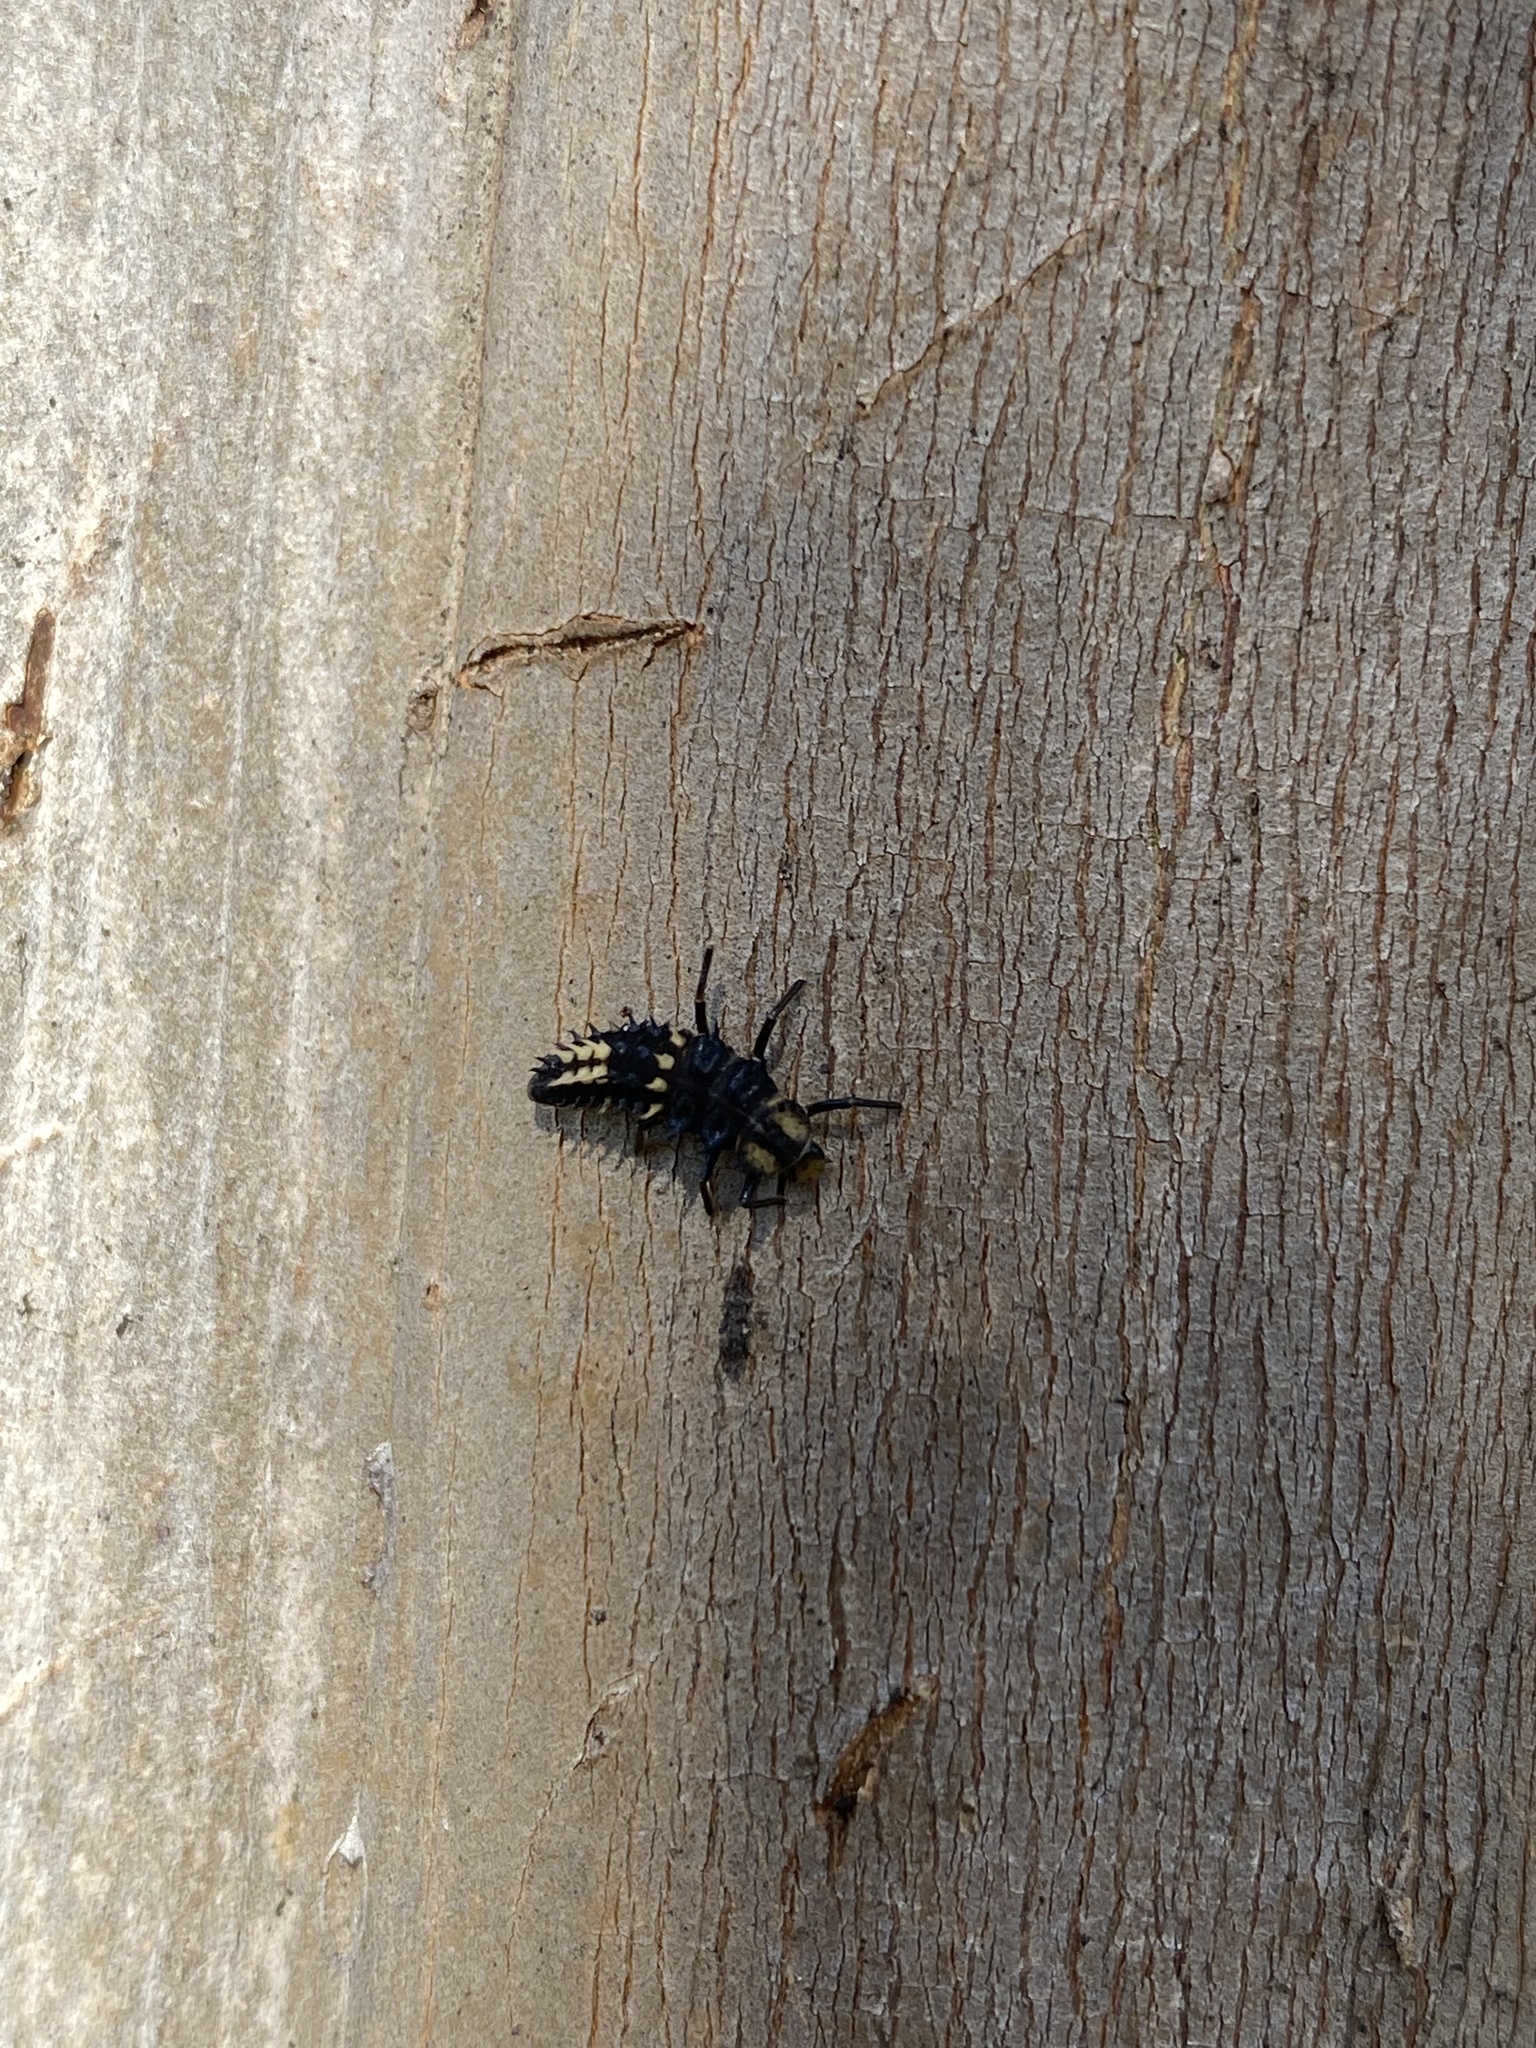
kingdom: Animalia
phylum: Arthropoda
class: Insecta
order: Coleoptera
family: Coccinellidae
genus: Harmonia
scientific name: Harmonia
